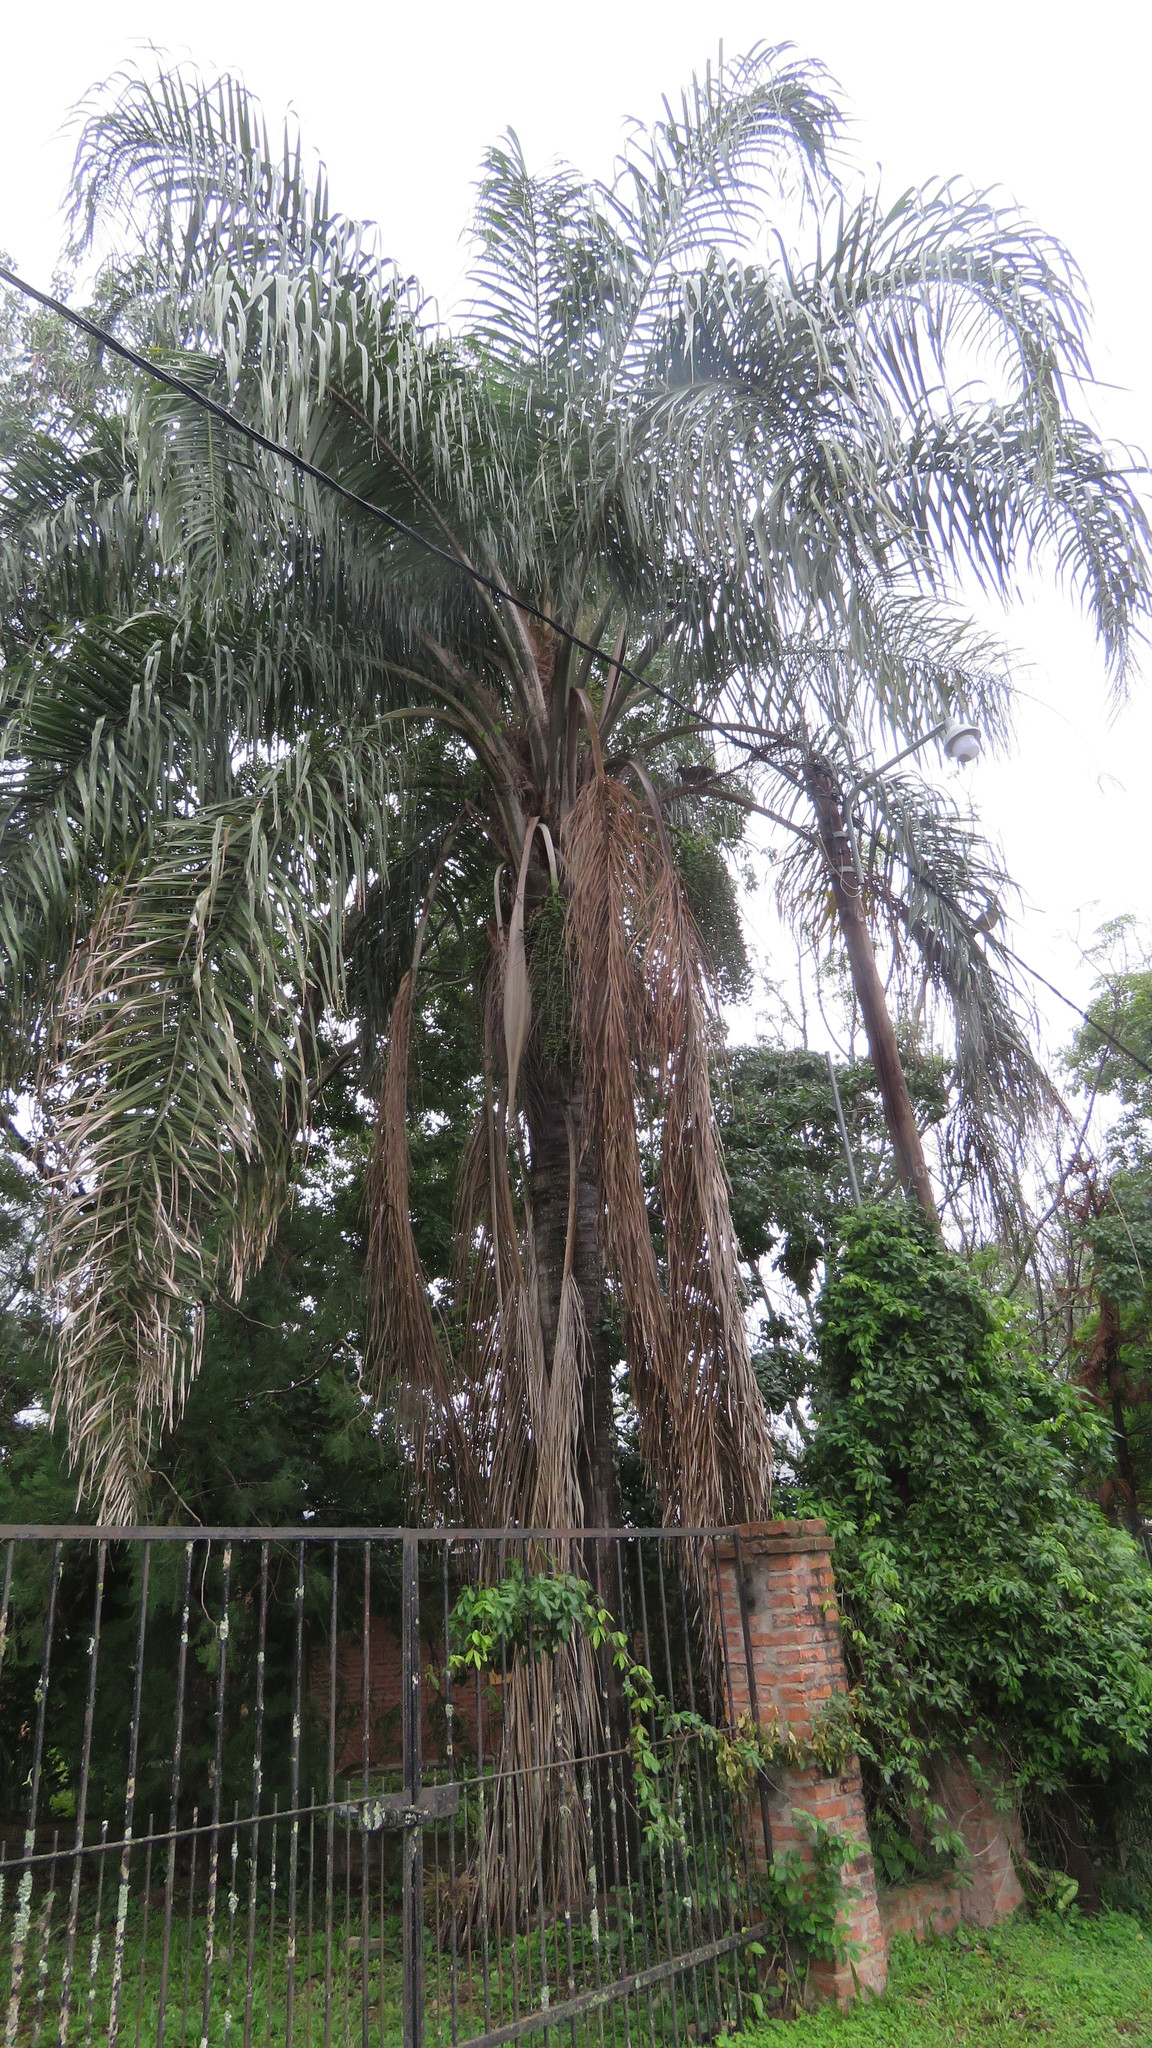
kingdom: Plantae
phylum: Tracheophyta
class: Liliopsida
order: Arecales
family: Arecaceae
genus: Syagrus
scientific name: Syagrus romanzoffiana
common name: Queen palm
